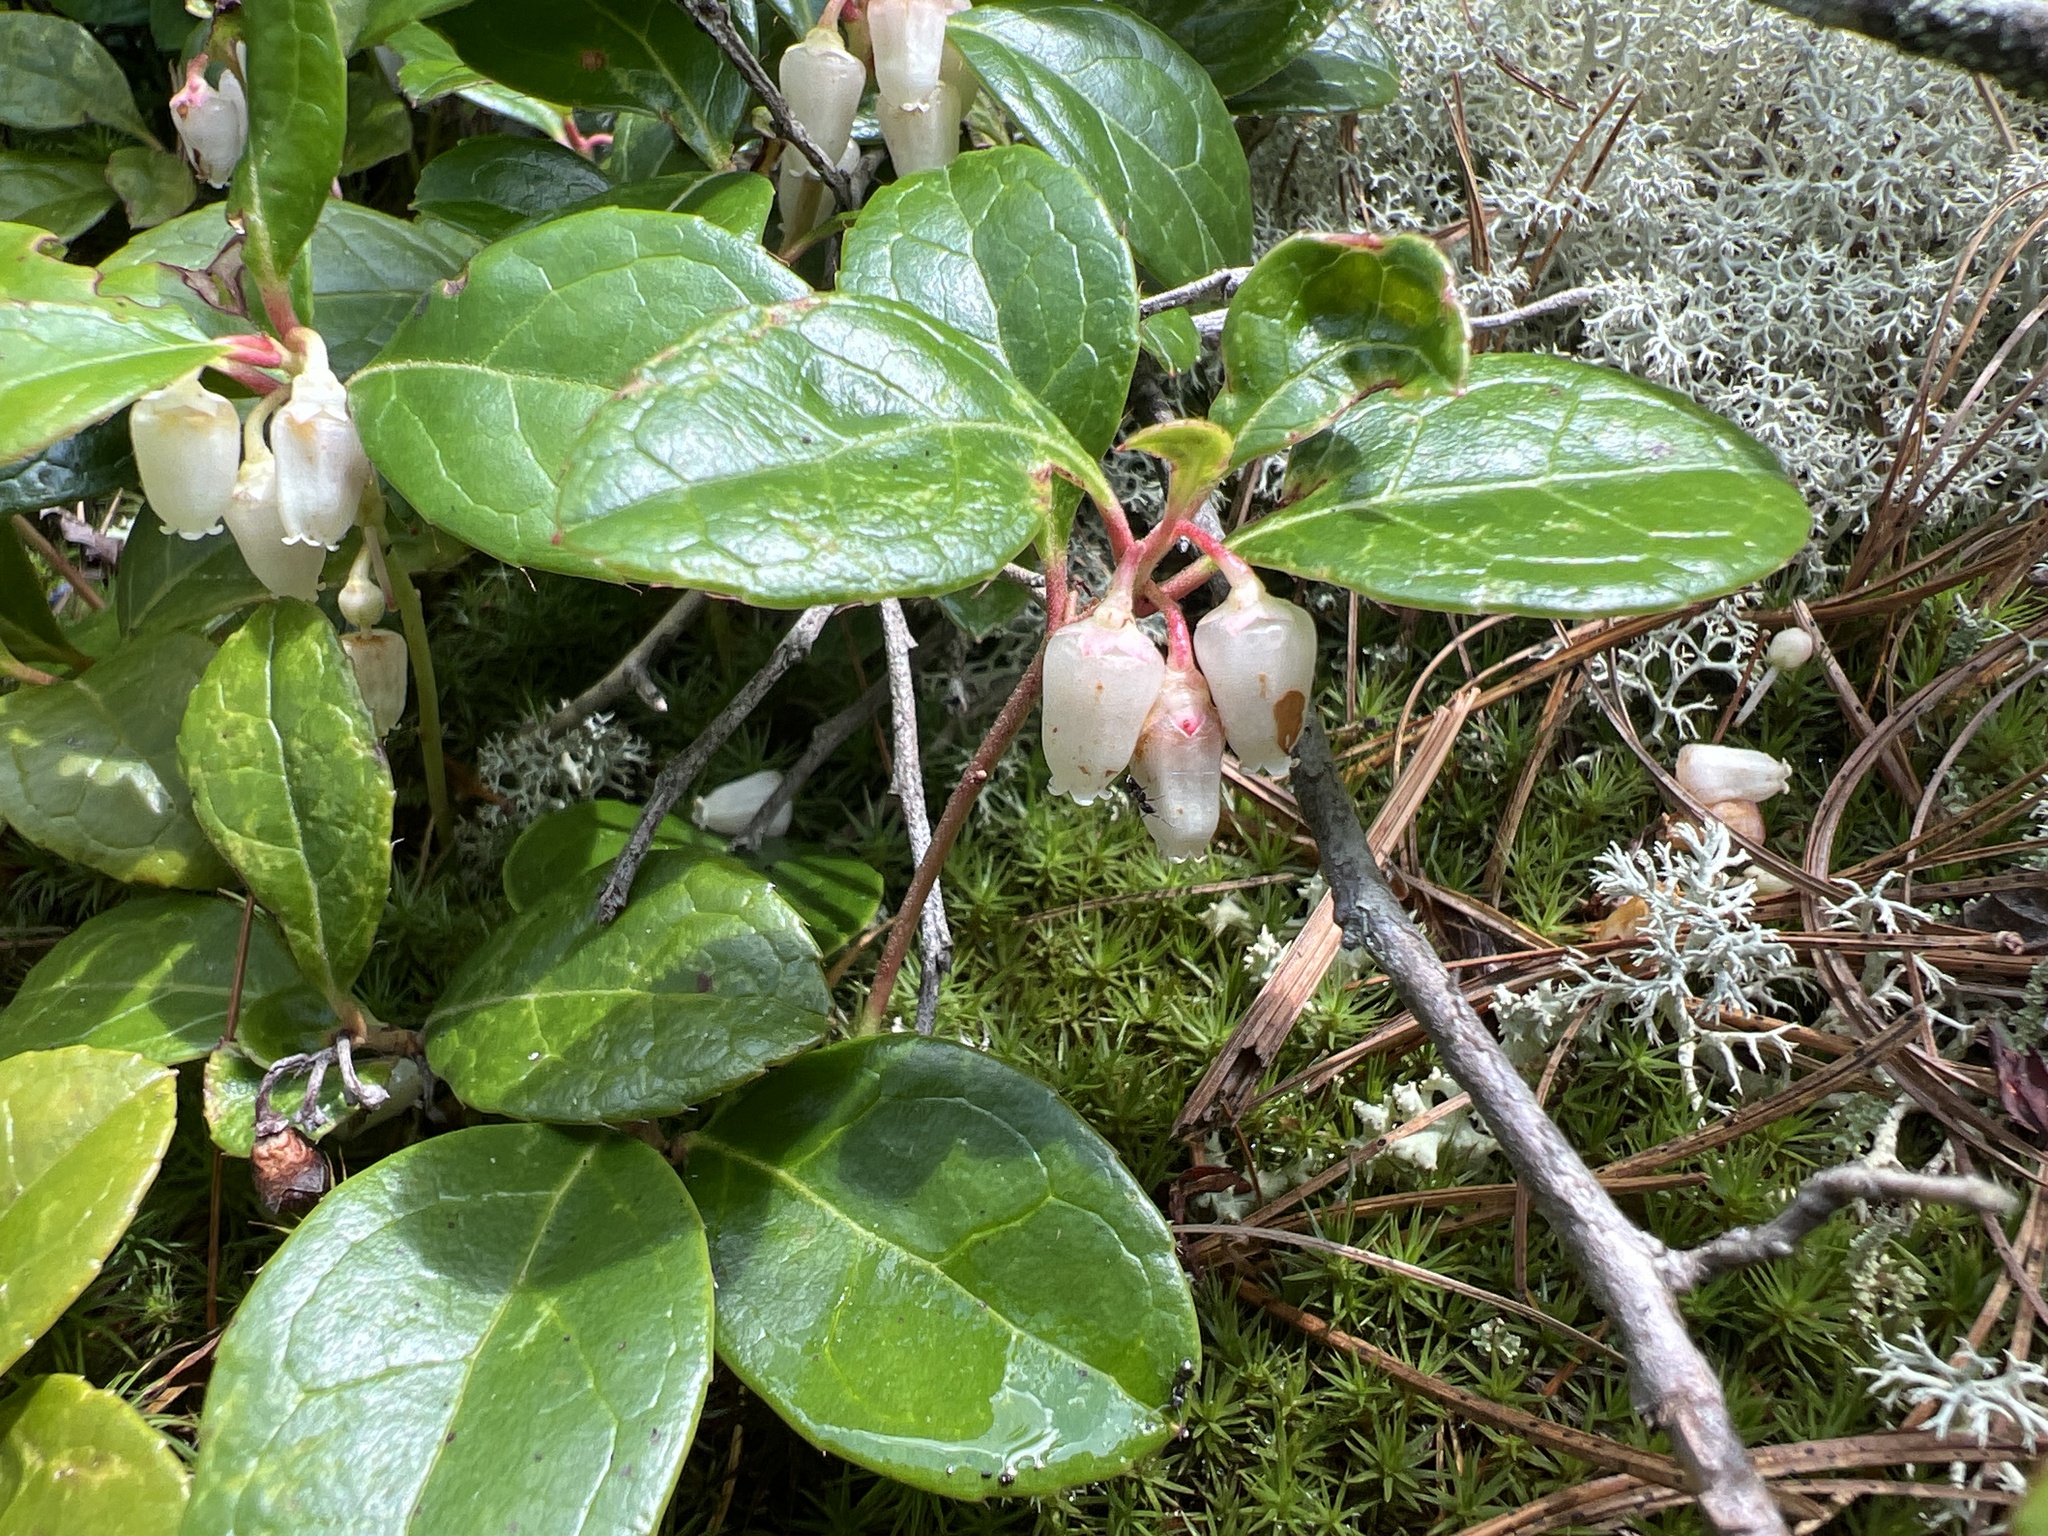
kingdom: Plantae
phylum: Tracheophyta
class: Magnoliopsida
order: Ericales
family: Ericaceae
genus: Gaultheria
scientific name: Gaultheria procumbens
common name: Checkerberry
